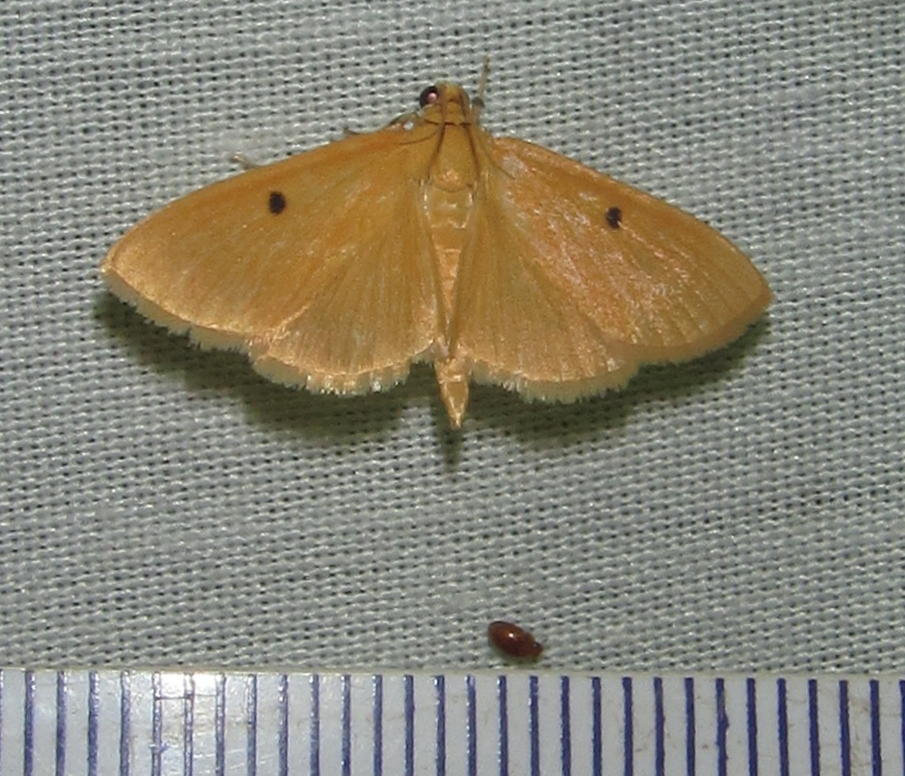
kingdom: Animalia
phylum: Arthropoda
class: Insecta
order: Lepidoptera
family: Crambidae
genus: Notarcha
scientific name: Notarcha muscerdalis
